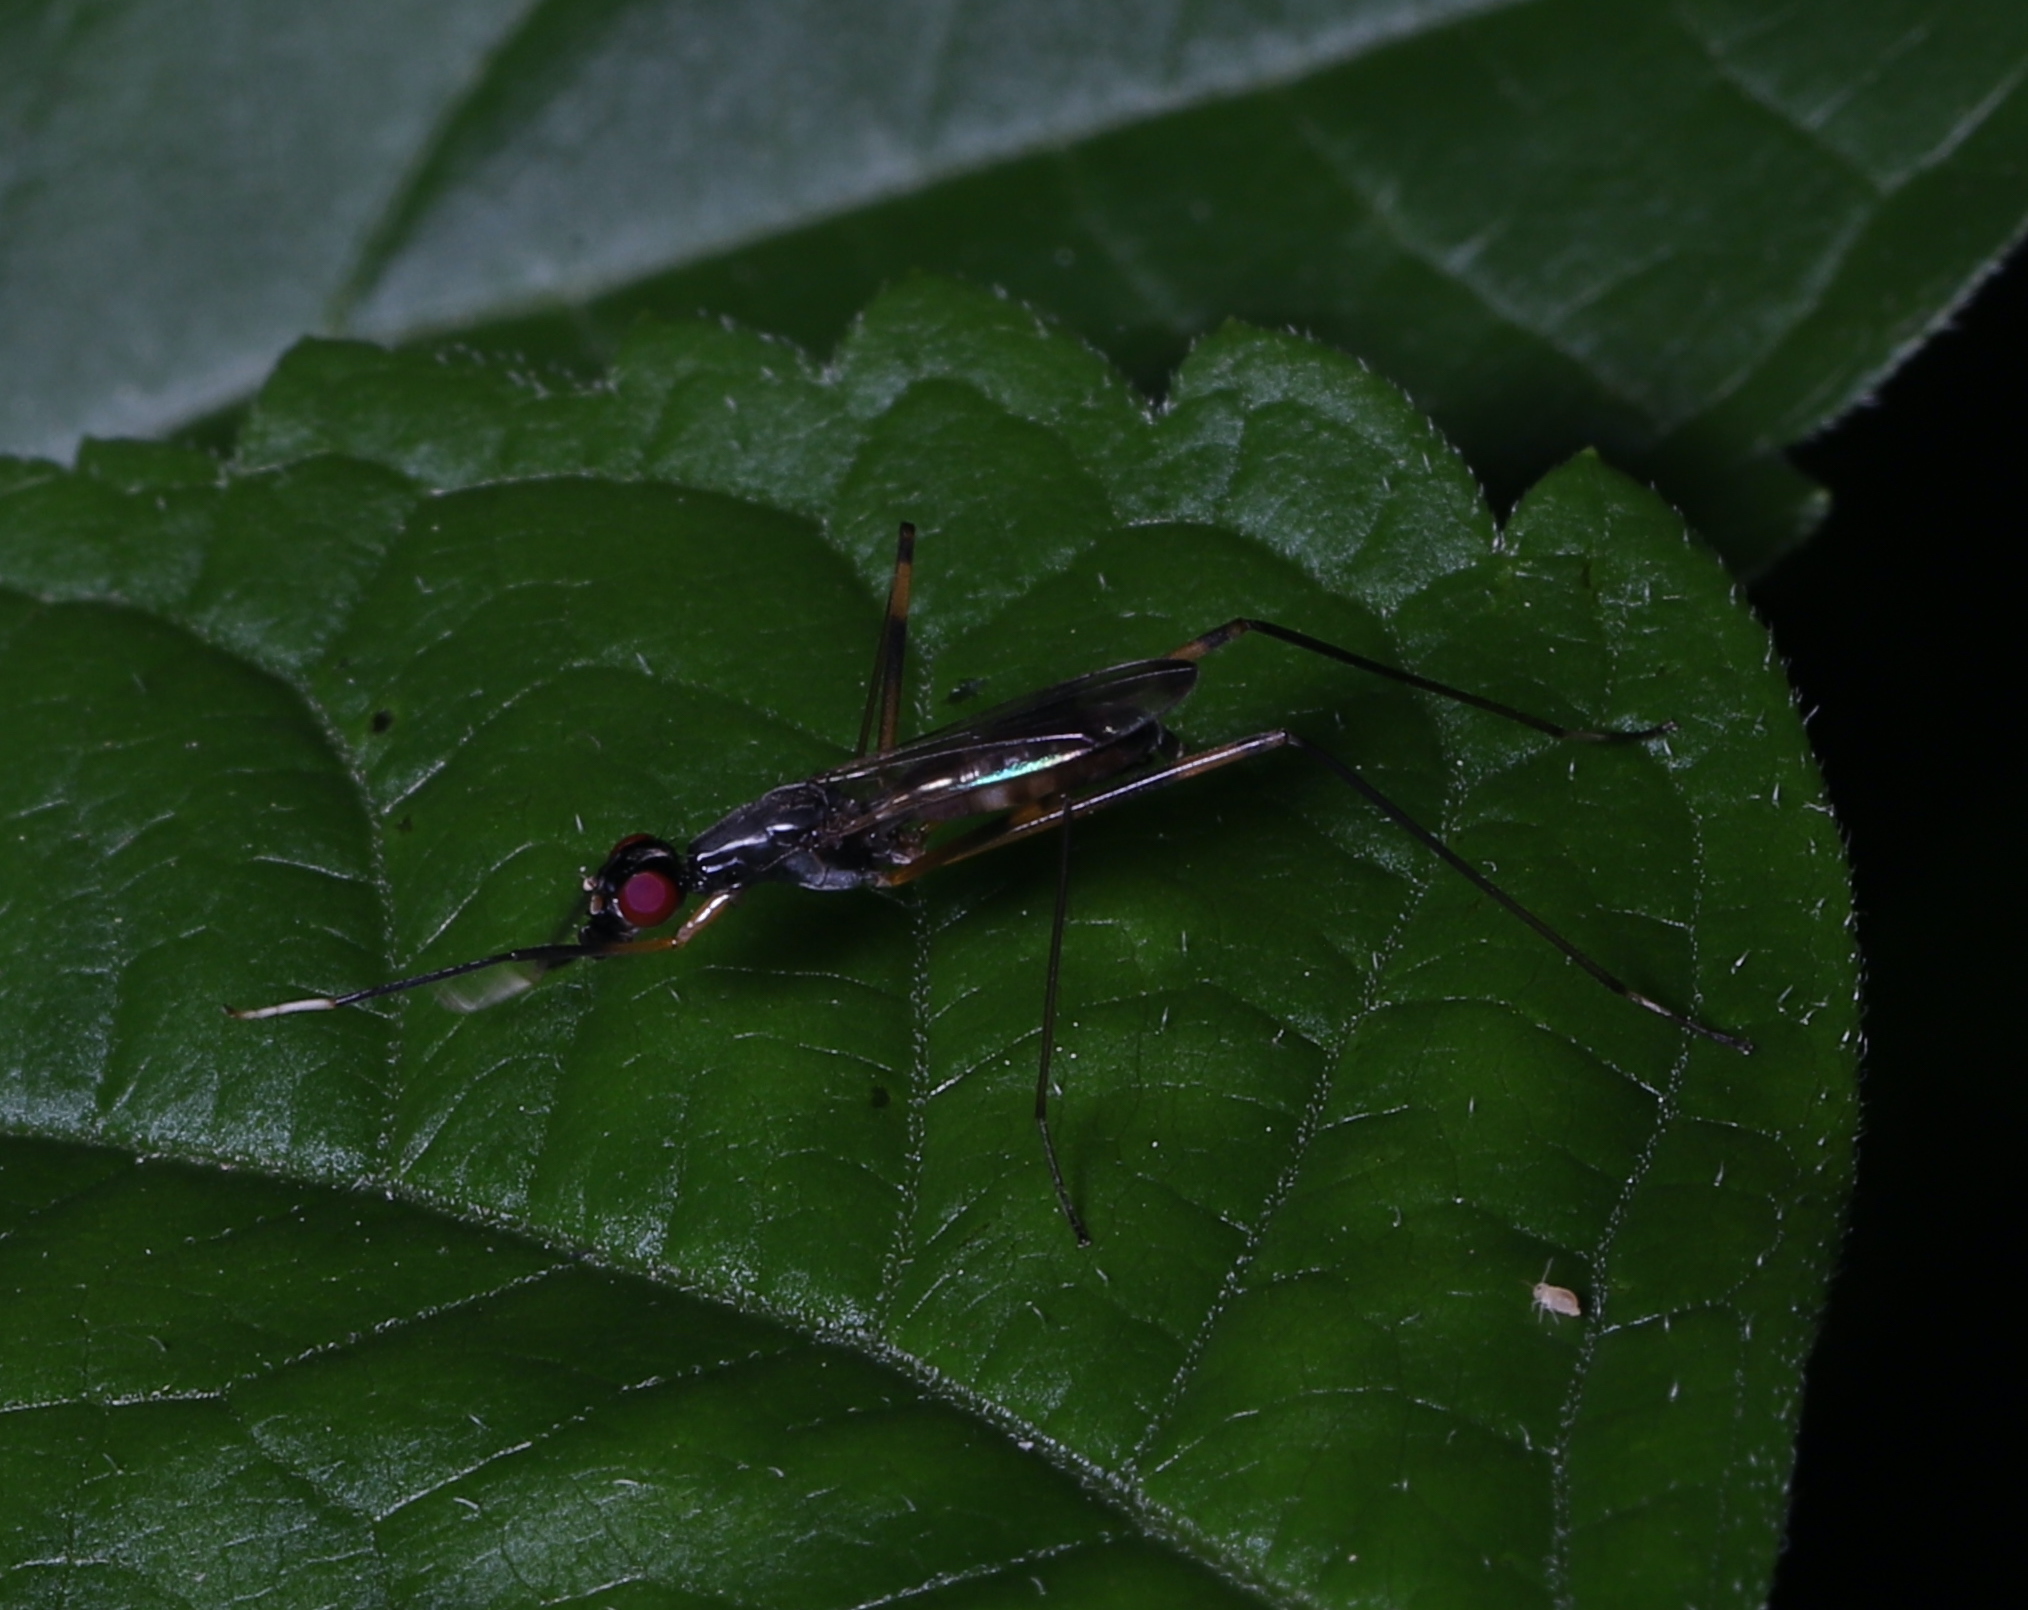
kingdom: Animalia
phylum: Arthropoda
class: Insecta
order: Diptera
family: Micropezidae
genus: Rainieria
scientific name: Rainieria antennaepes
